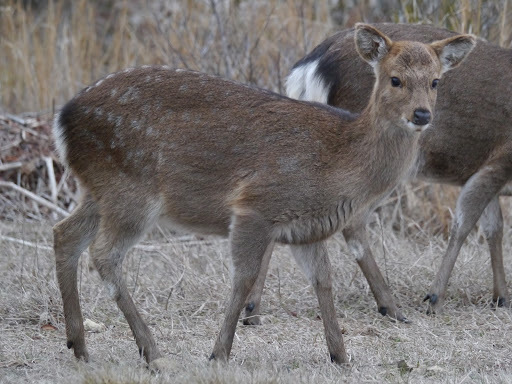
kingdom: Animalia
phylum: Chordata
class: Mammalia
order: Artiodactyla
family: Cervidae
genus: Cervus
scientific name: Cervus nippon
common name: Sika deer
